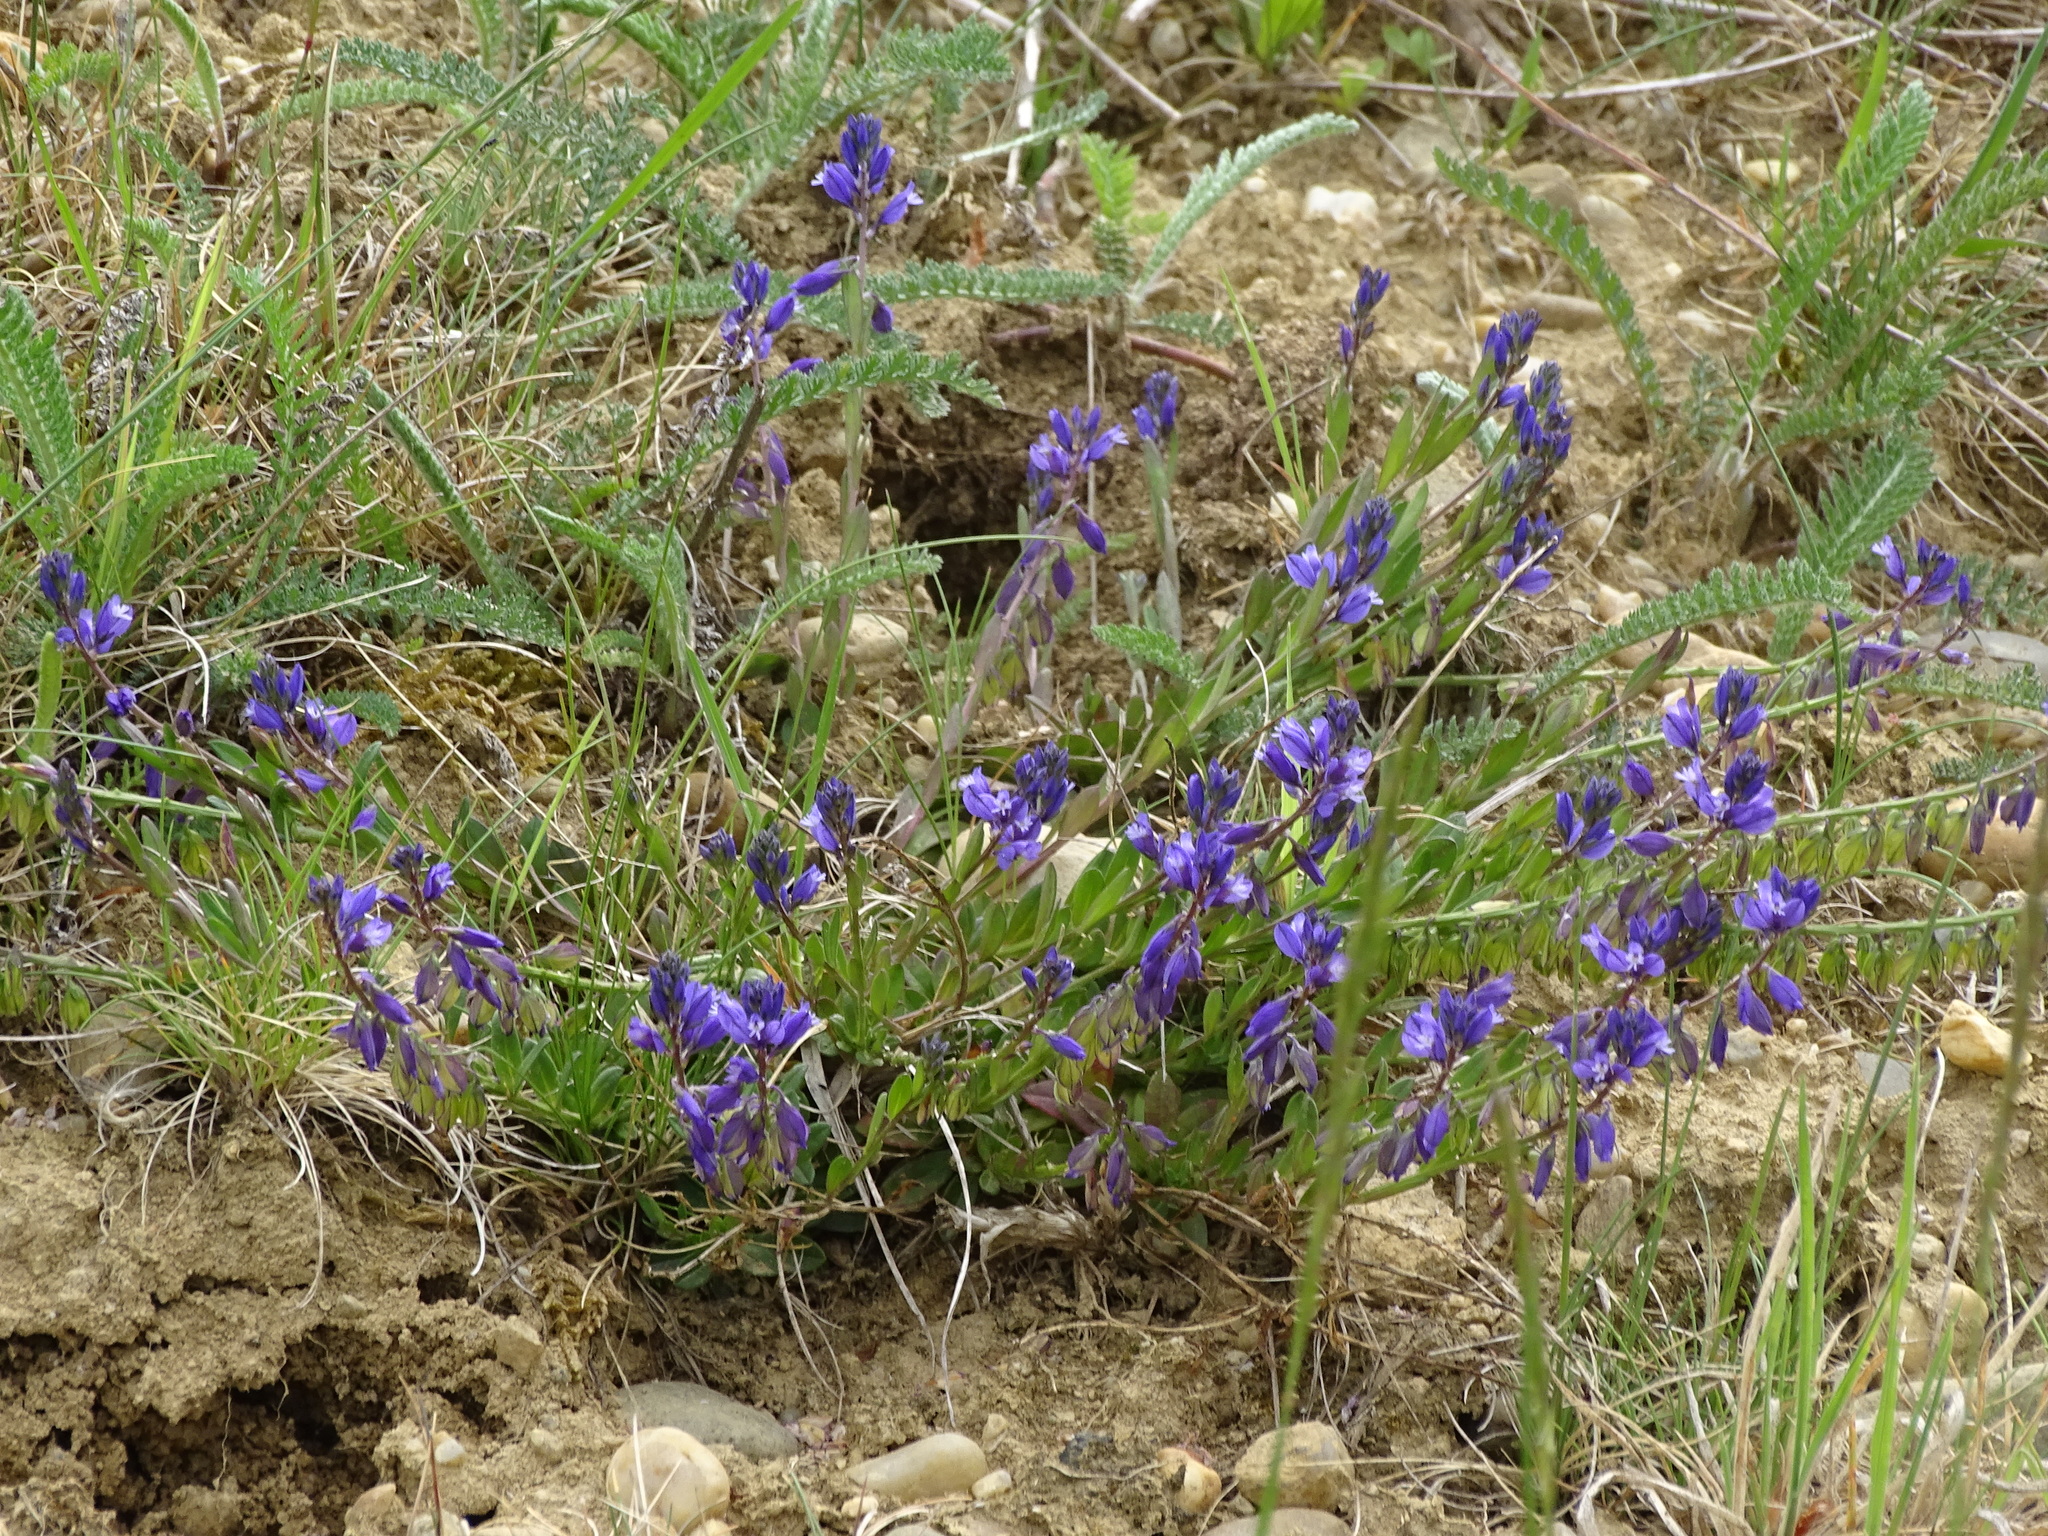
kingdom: Plantae
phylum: Tracheophyta
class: Magnoliopsida
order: Fabales
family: Polygalaceae
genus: Polygala
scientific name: Polygala vulgaris
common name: Common milkwort
